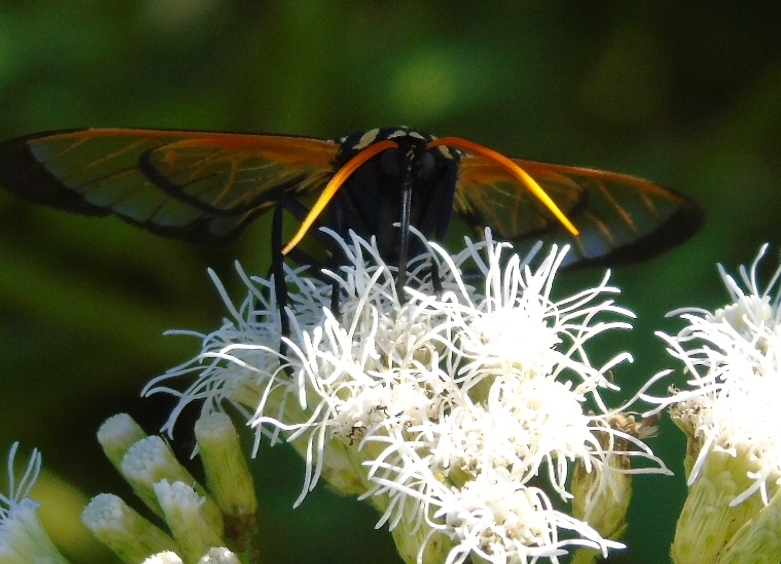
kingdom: Animalia
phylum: Arthropoda
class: Insecta
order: Lepidoptera
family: Erebidae
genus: Isanthrene
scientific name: Isanthrene perboscii
